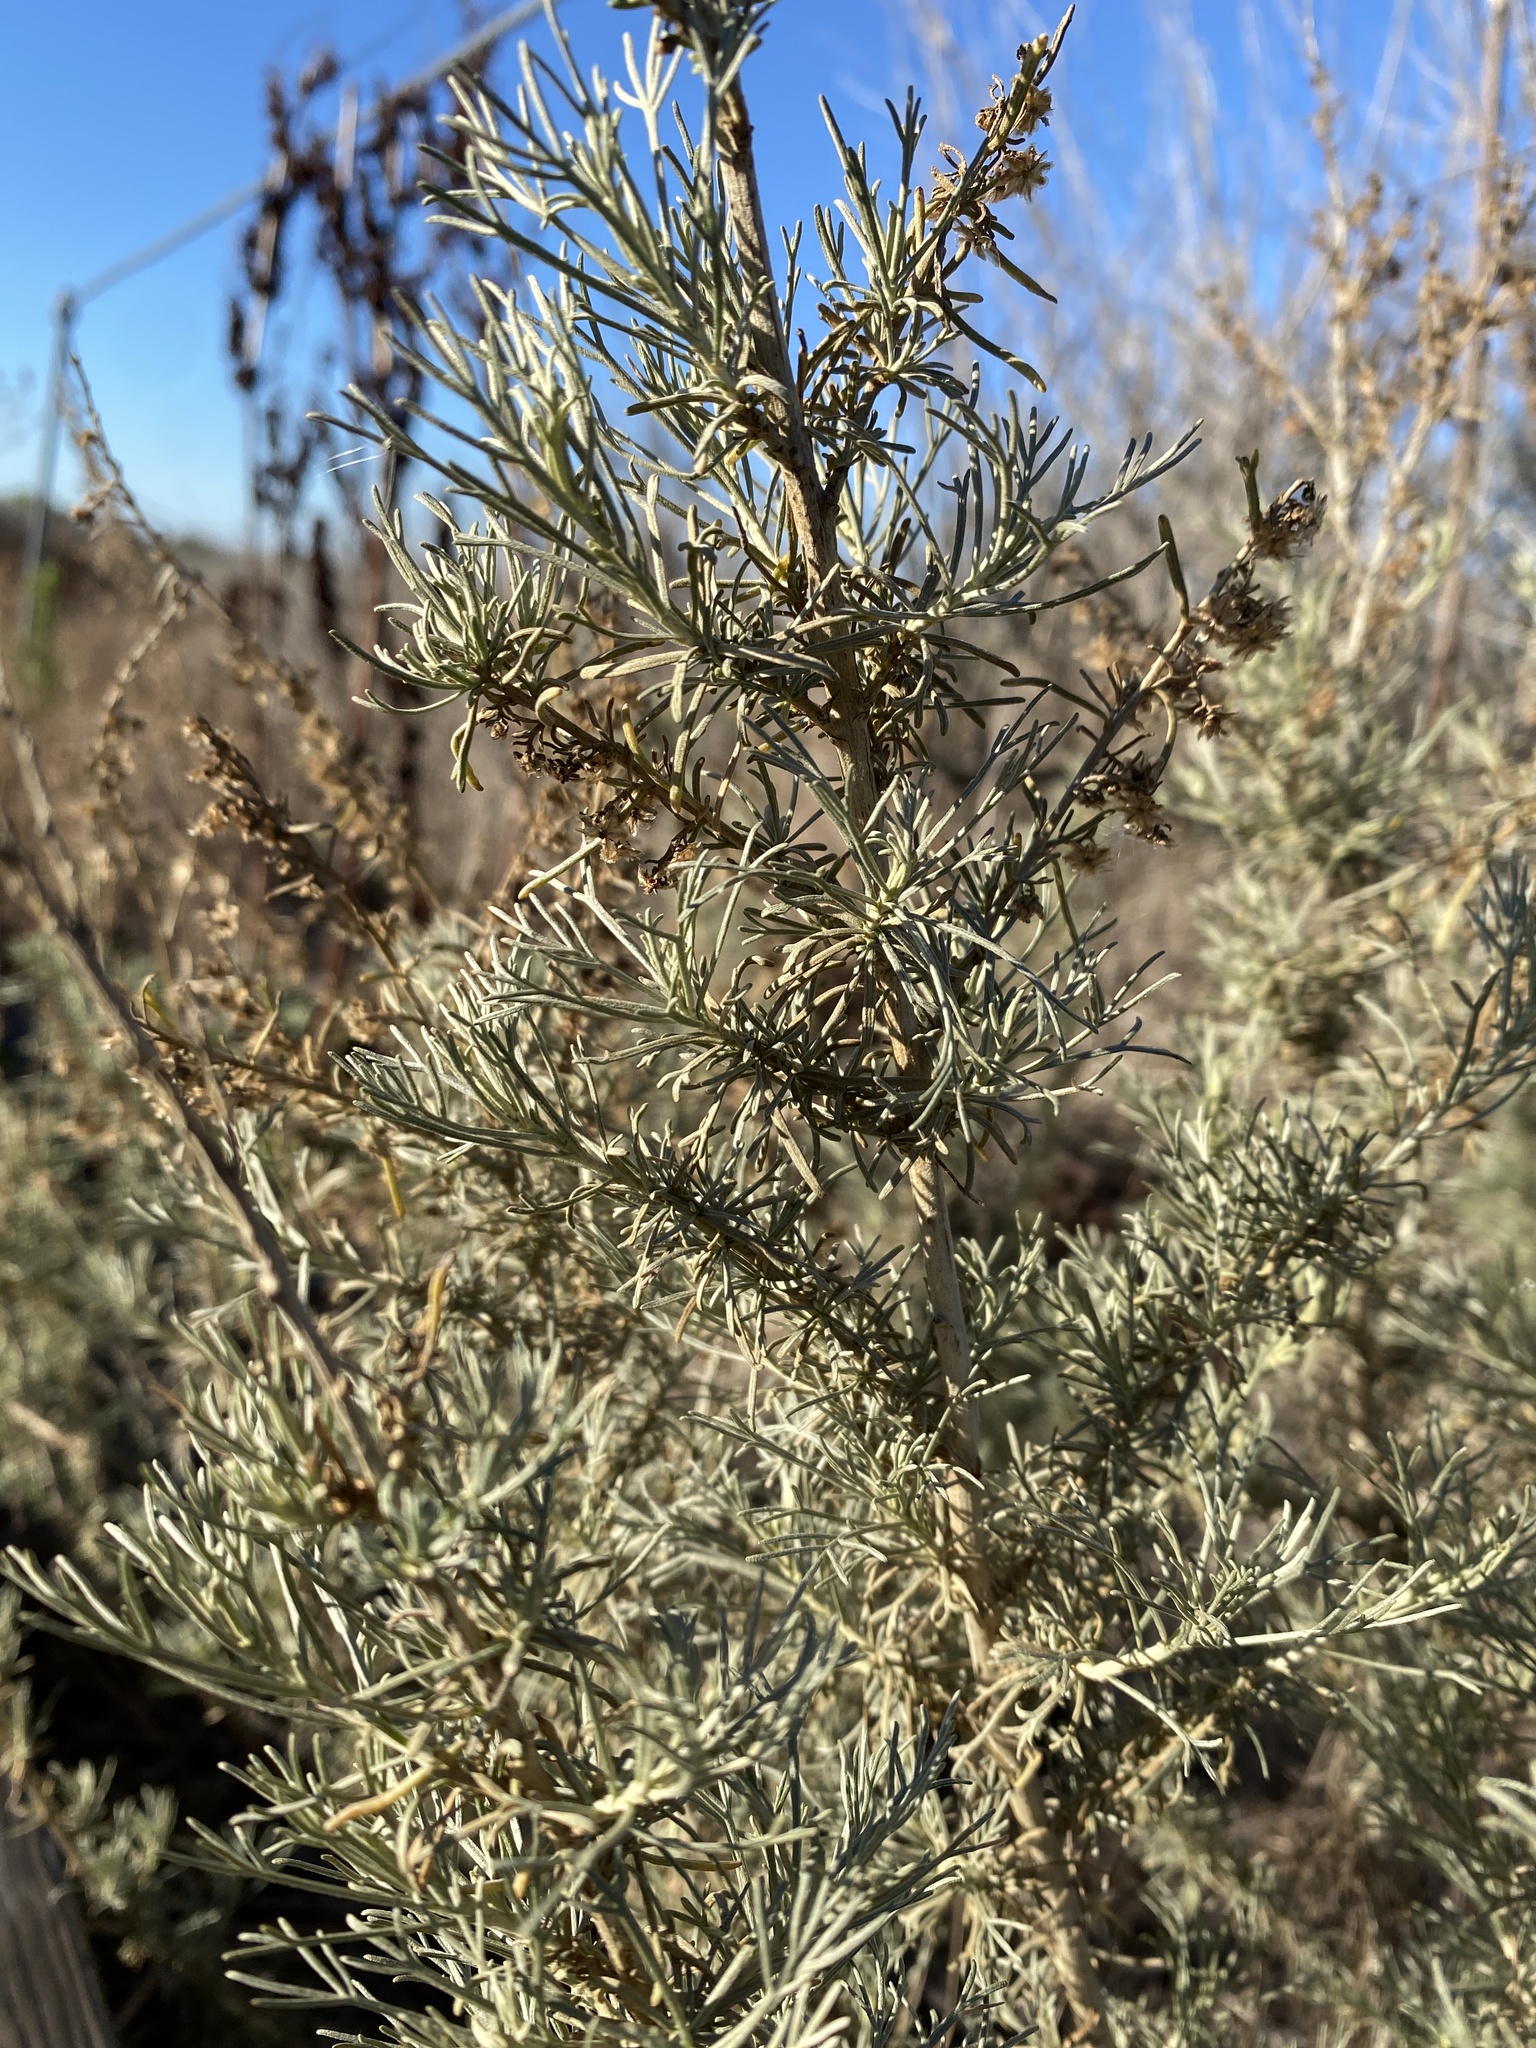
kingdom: Plantae
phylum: Tracheophyta
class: Magnoliopsida
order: Asterales
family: Asteraceae
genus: Artemisia
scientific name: Artemisia californica
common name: California sagebrush
